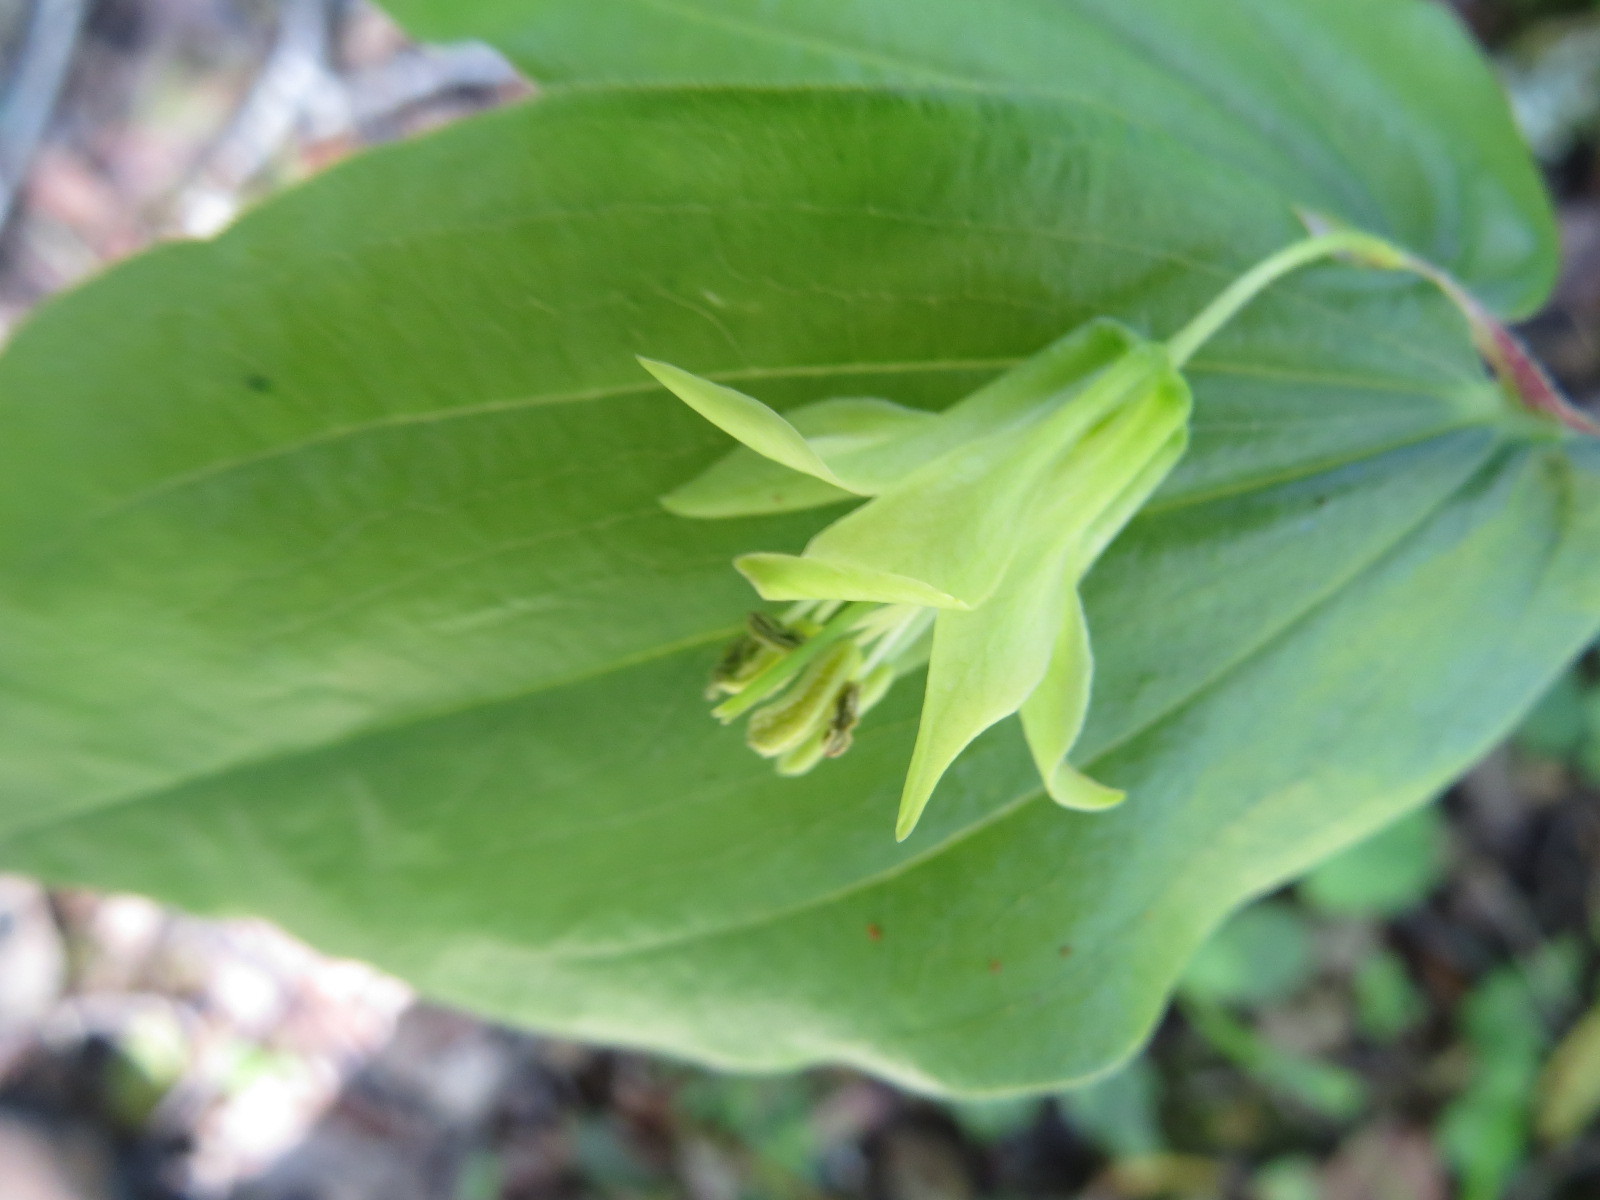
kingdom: Plantae
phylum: Tracheophyta
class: Liliopsida
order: Liliales
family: Liliaceae
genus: Prosartes
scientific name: Prosartes hookeri
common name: Fairy-bells
